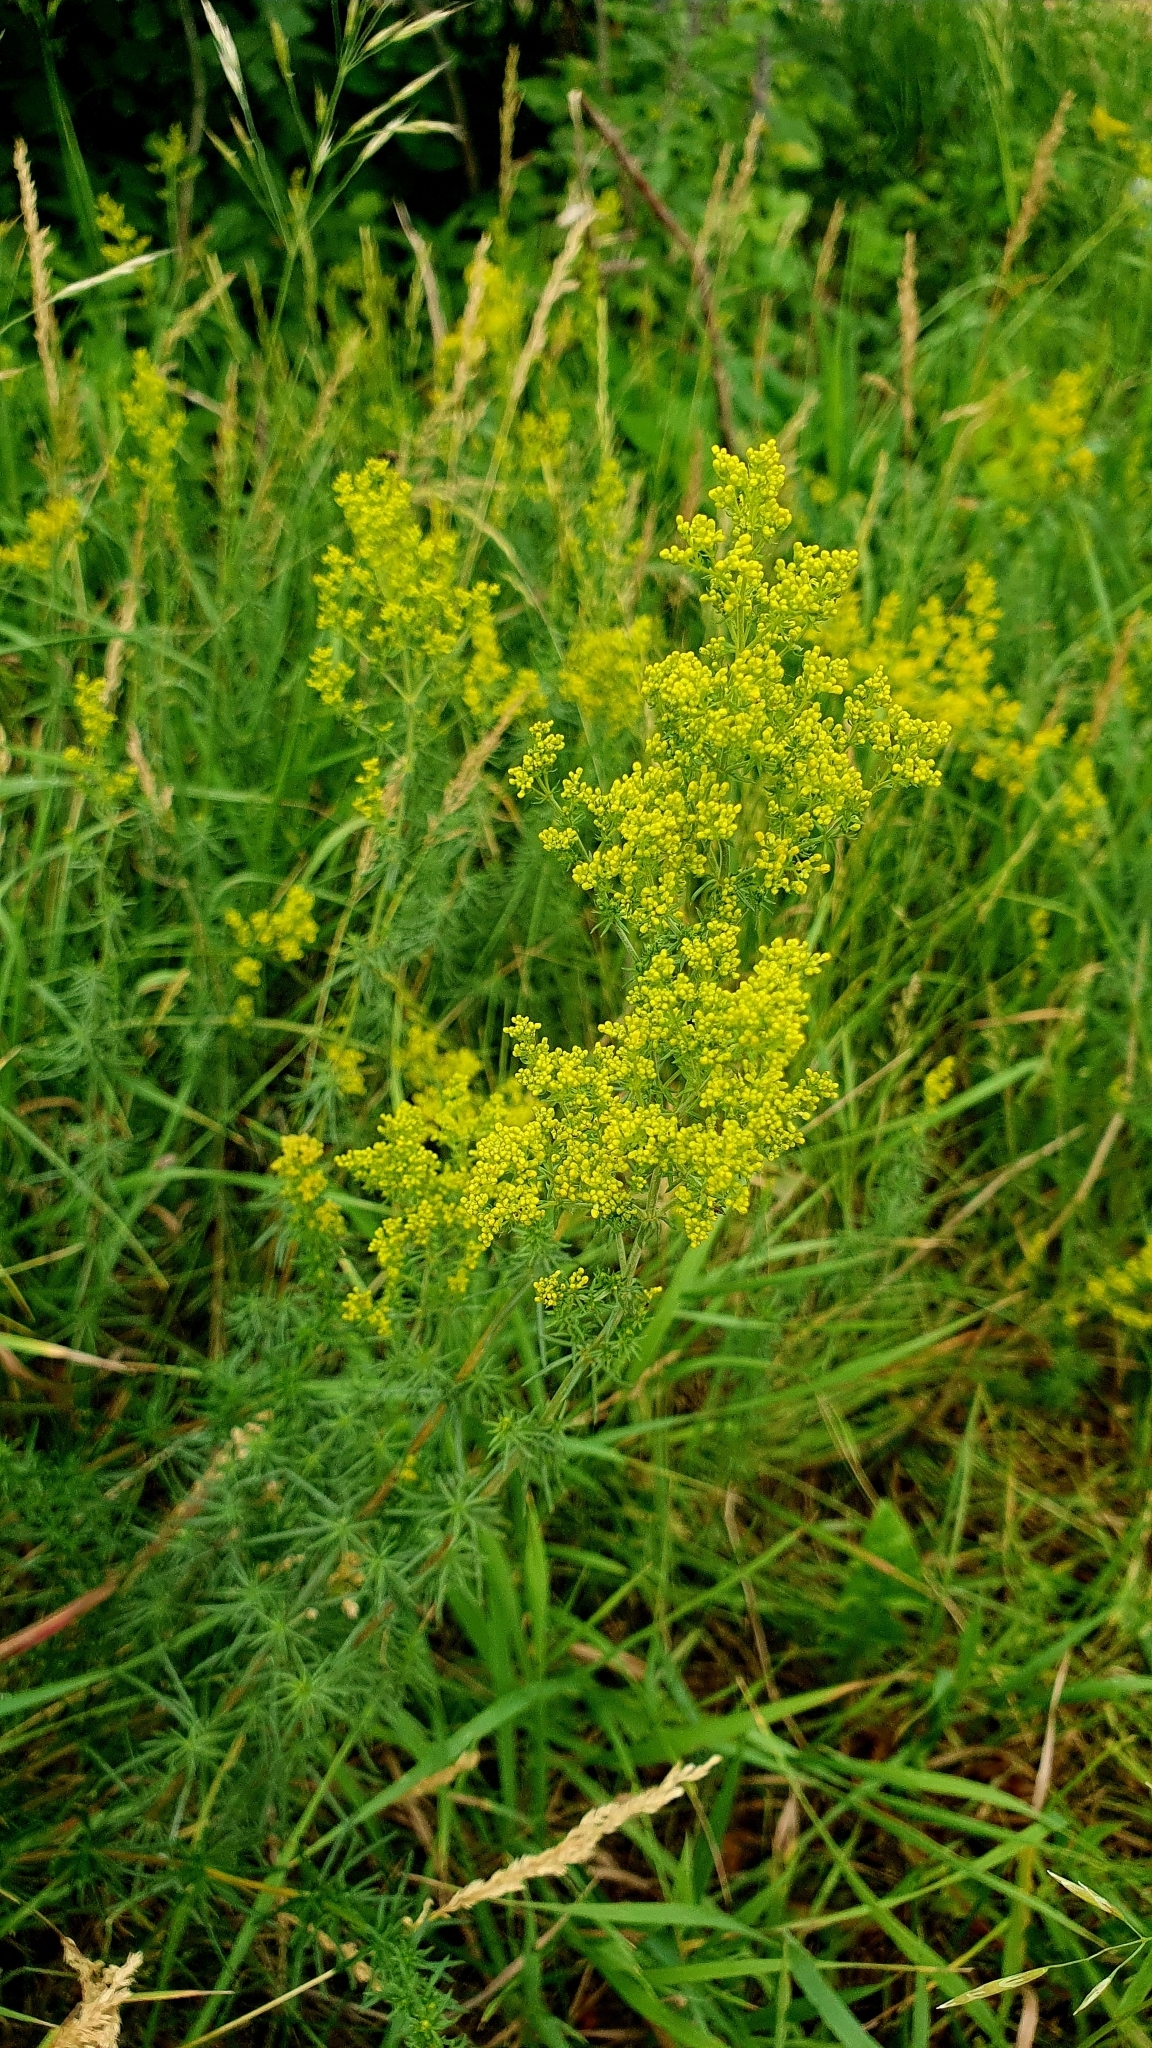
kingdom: Plantae
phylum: Tracheophyta
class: Magnoliopsida
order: Gentianales
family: Rubiaceae
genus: Galium
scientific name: Galium verum
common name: Lady's bedstraw
